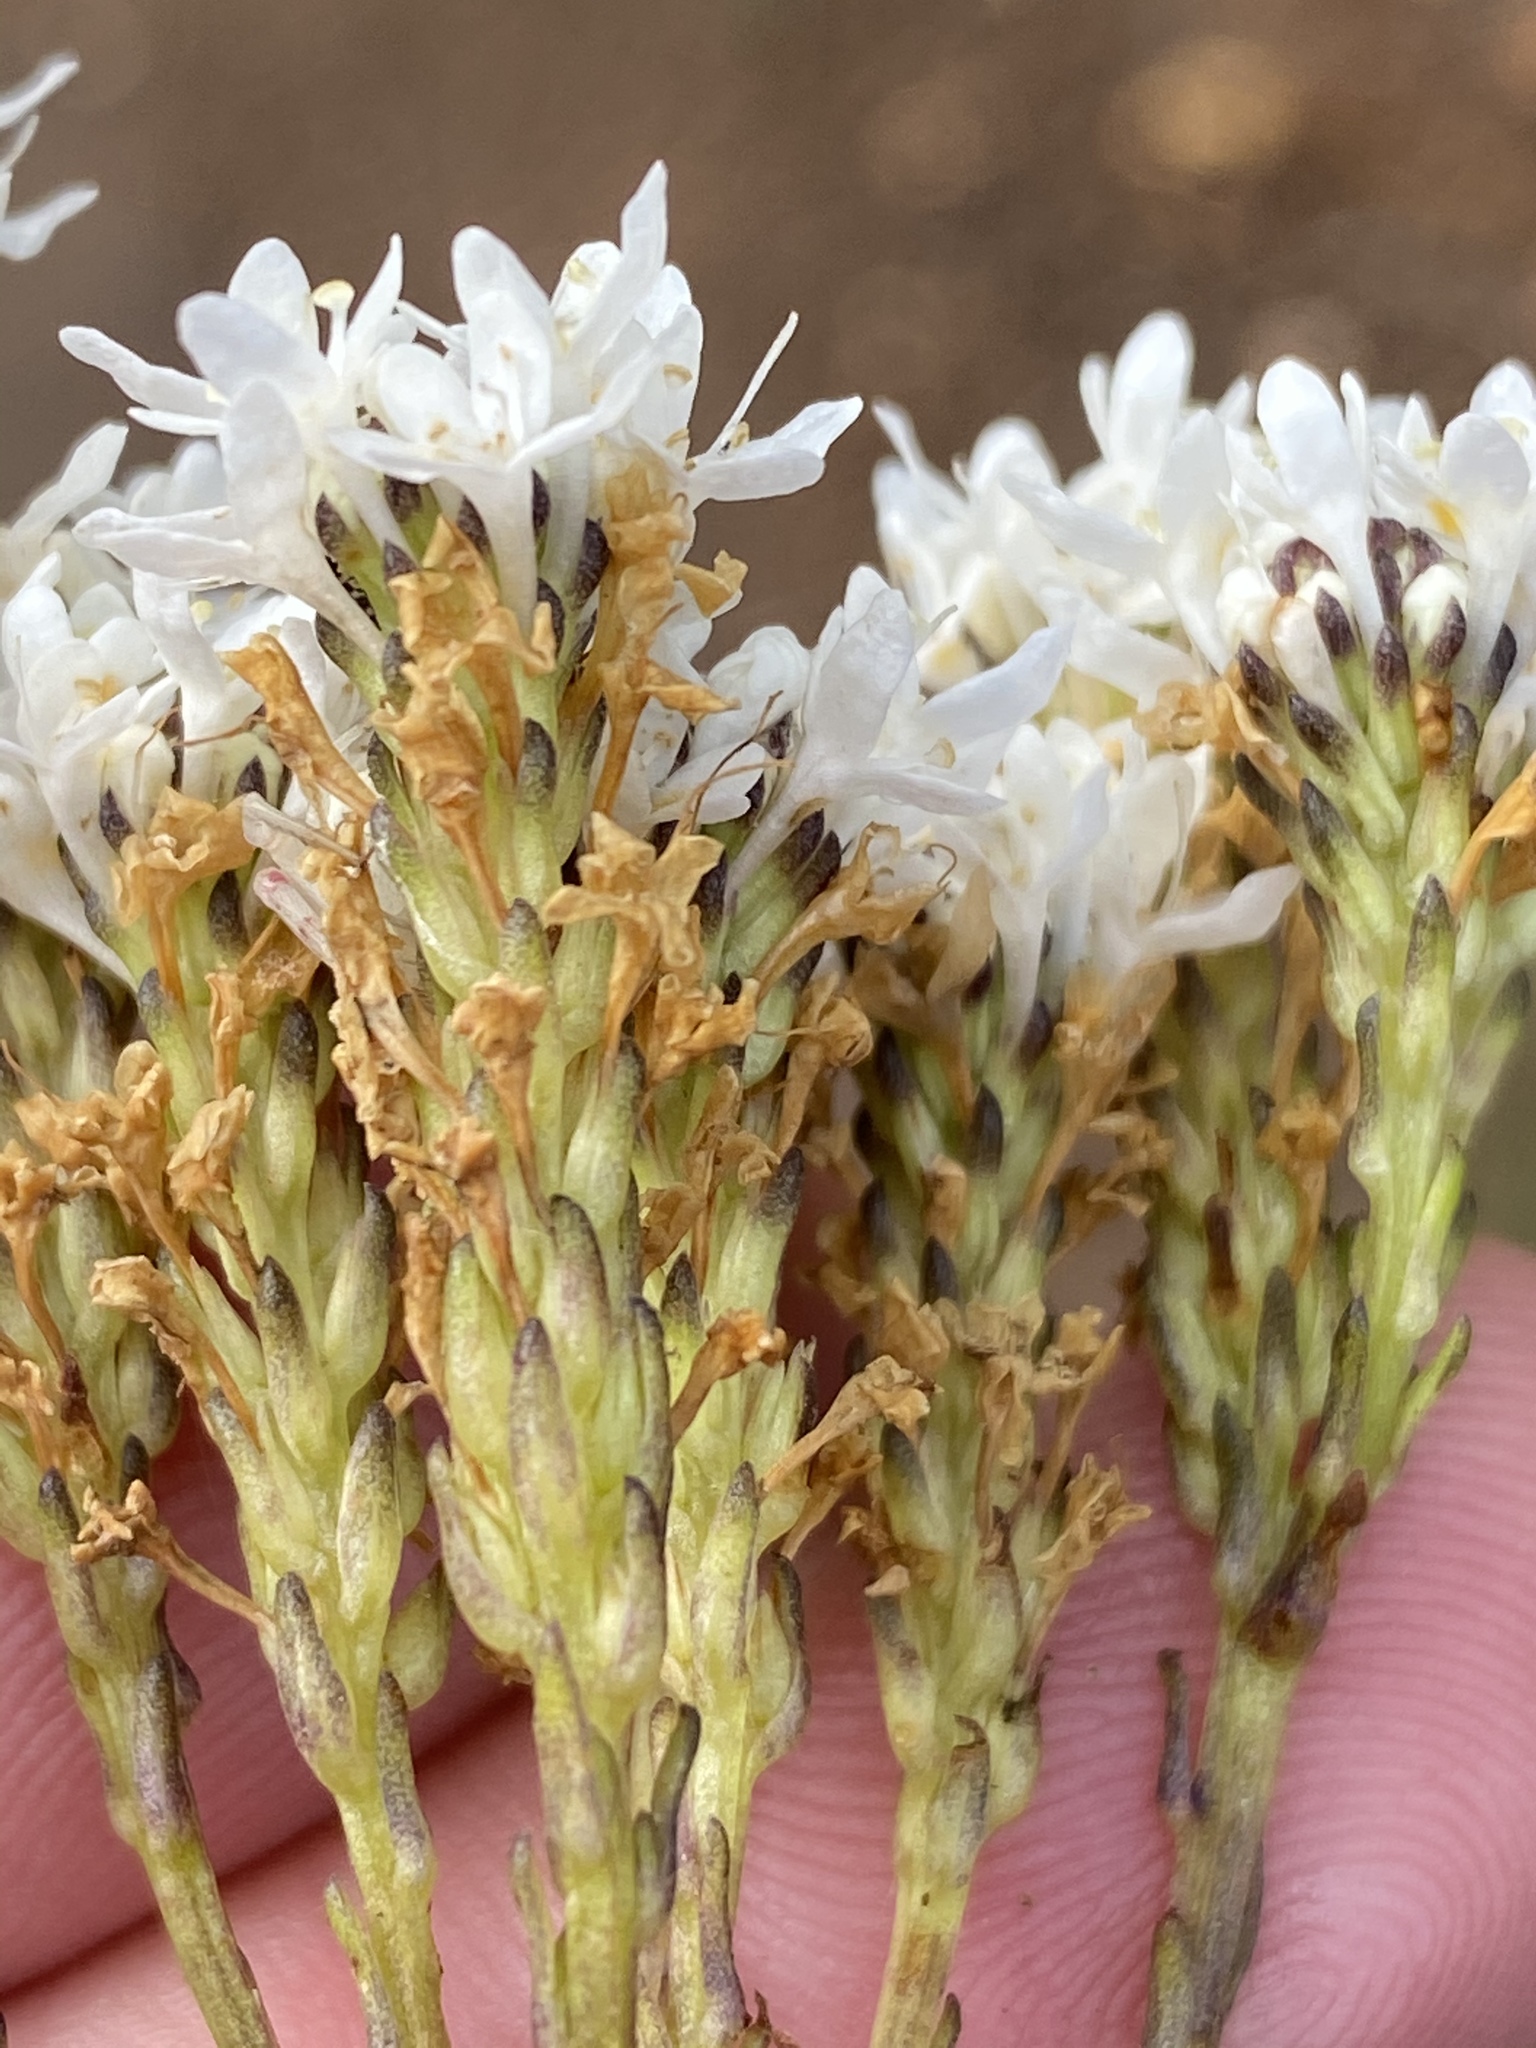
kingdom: Plantae
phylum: Tracheophyta
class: Magnoliopsida
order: Lamiales
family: Scrophulariaceae
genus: Pseudoselago
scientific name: Pseudoselago outeniquensis
